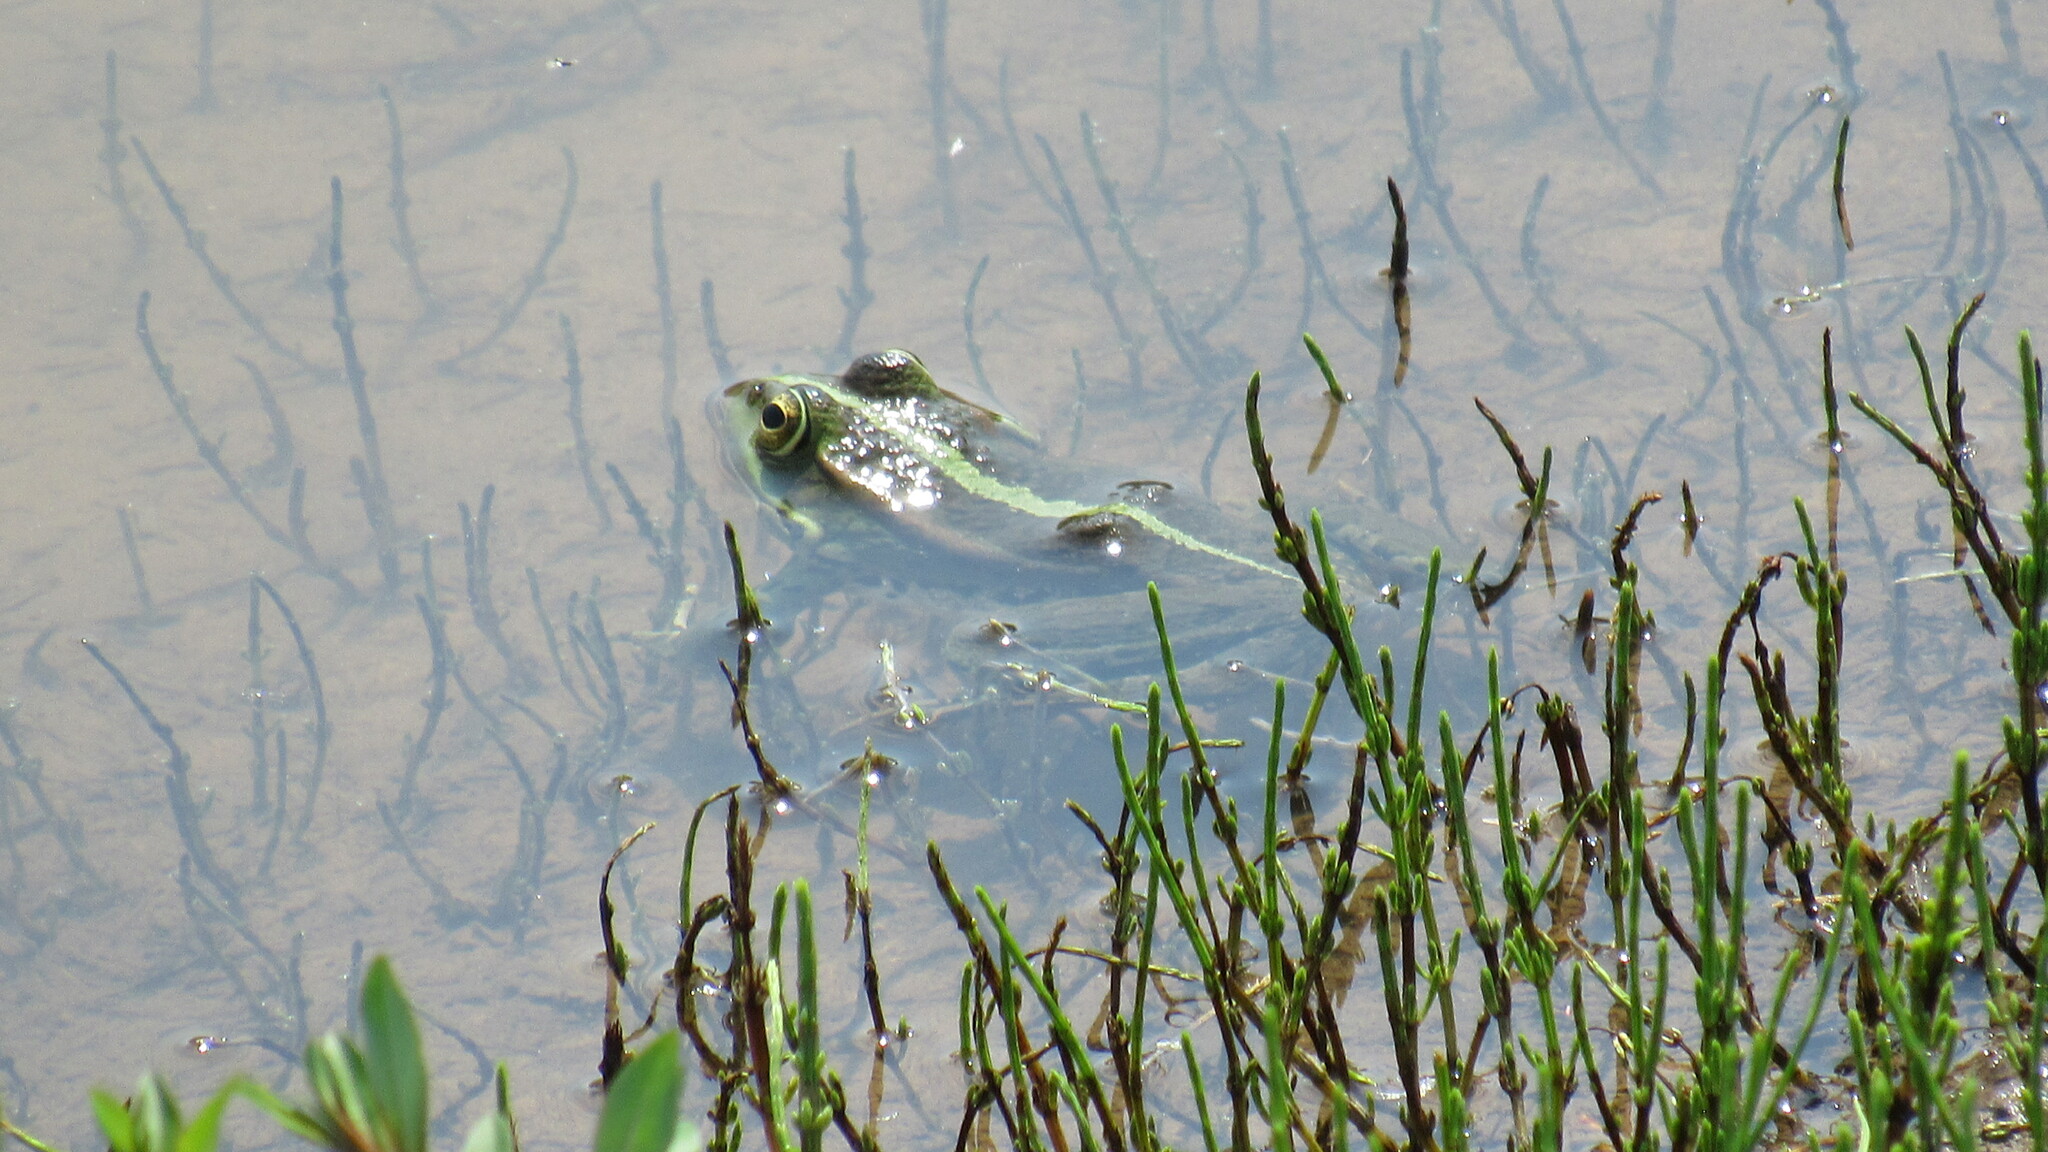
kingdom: Animalia
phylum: Chordata
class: Amphibia
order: Anura
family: Ranidae
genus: Pelophylax
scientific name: Pelophylax ridibundus
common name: Marsh frog
